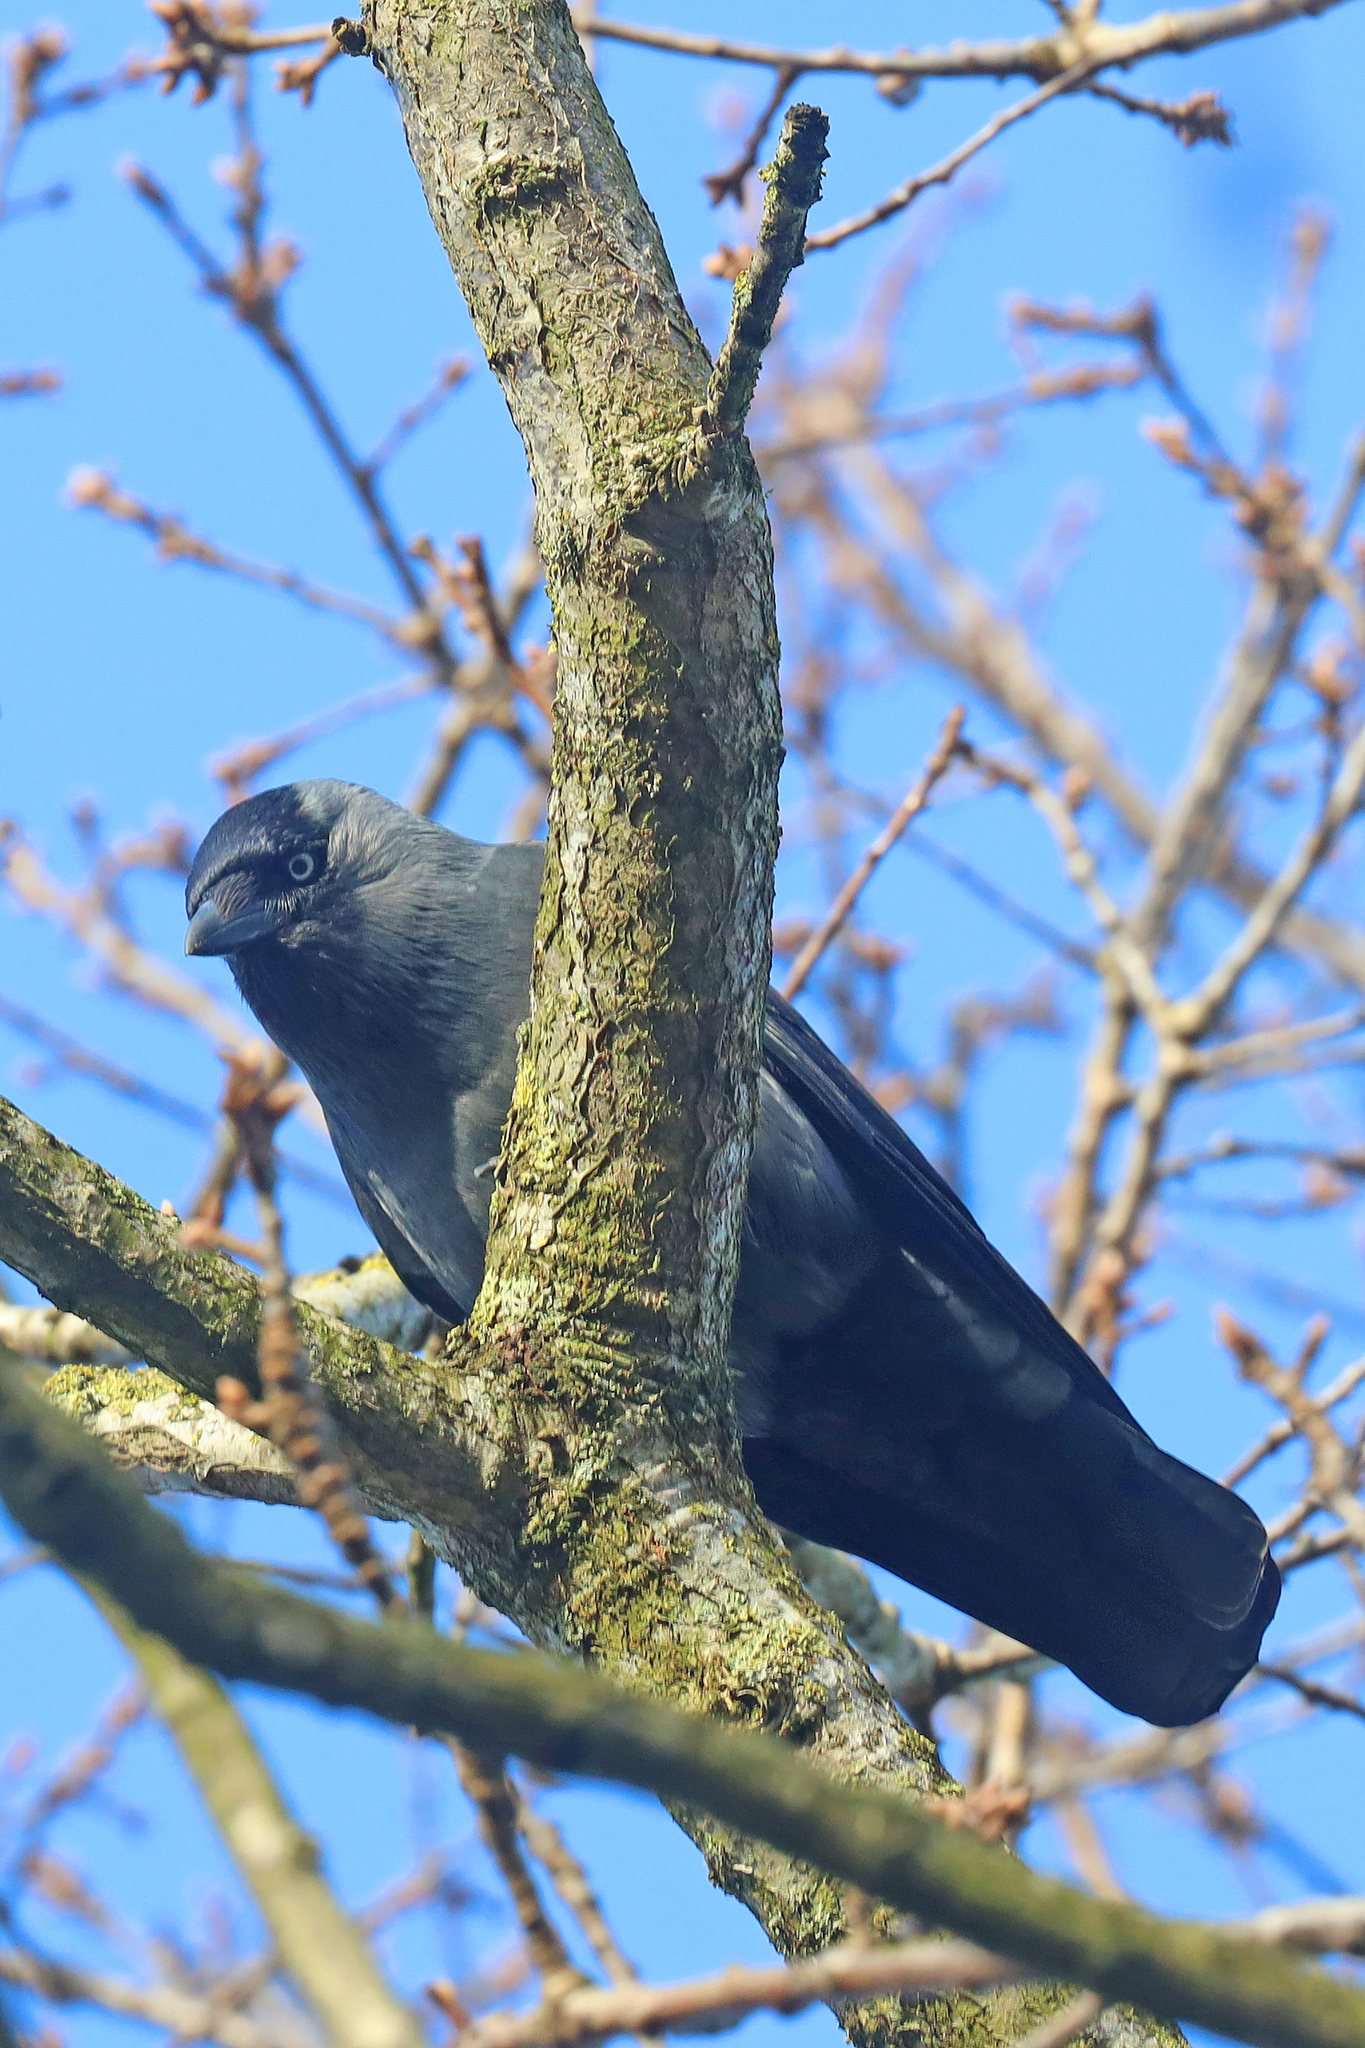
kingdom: Animalia
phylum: Chordata
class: Aves
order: Passeriformes
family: Corvidae
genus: Coloeus
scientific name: Coloeus monedula
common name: Western jackdaw
